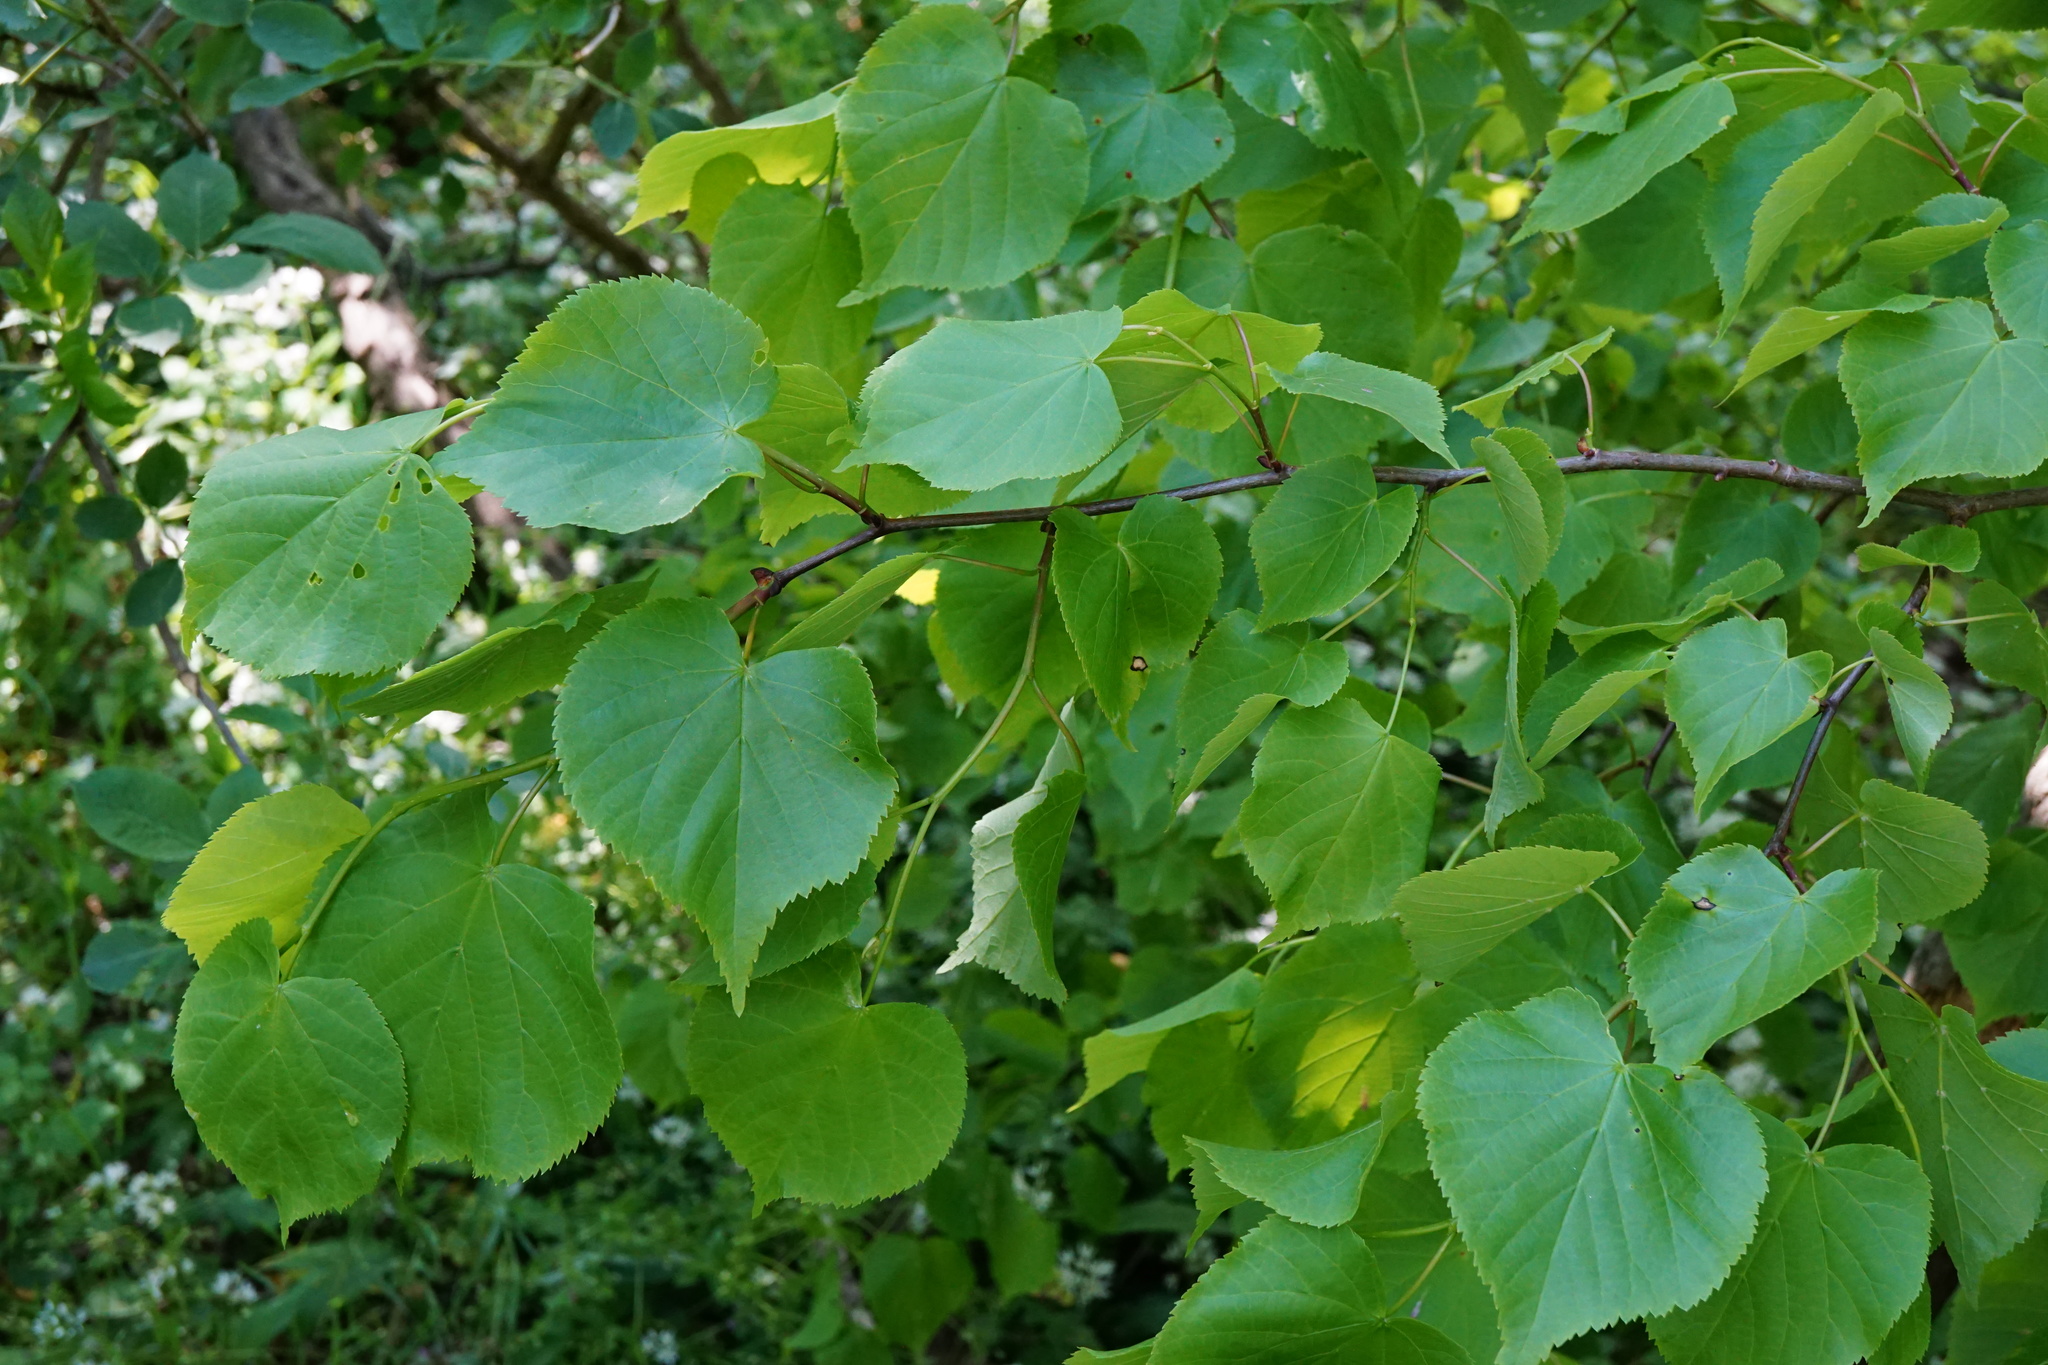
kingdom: Plantae
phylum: Tracheophyta
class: Magnoliopsida
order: Malvales
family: Malvaceae
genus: Tilia
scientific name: Tilia cordata
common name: Small-leaved lime
